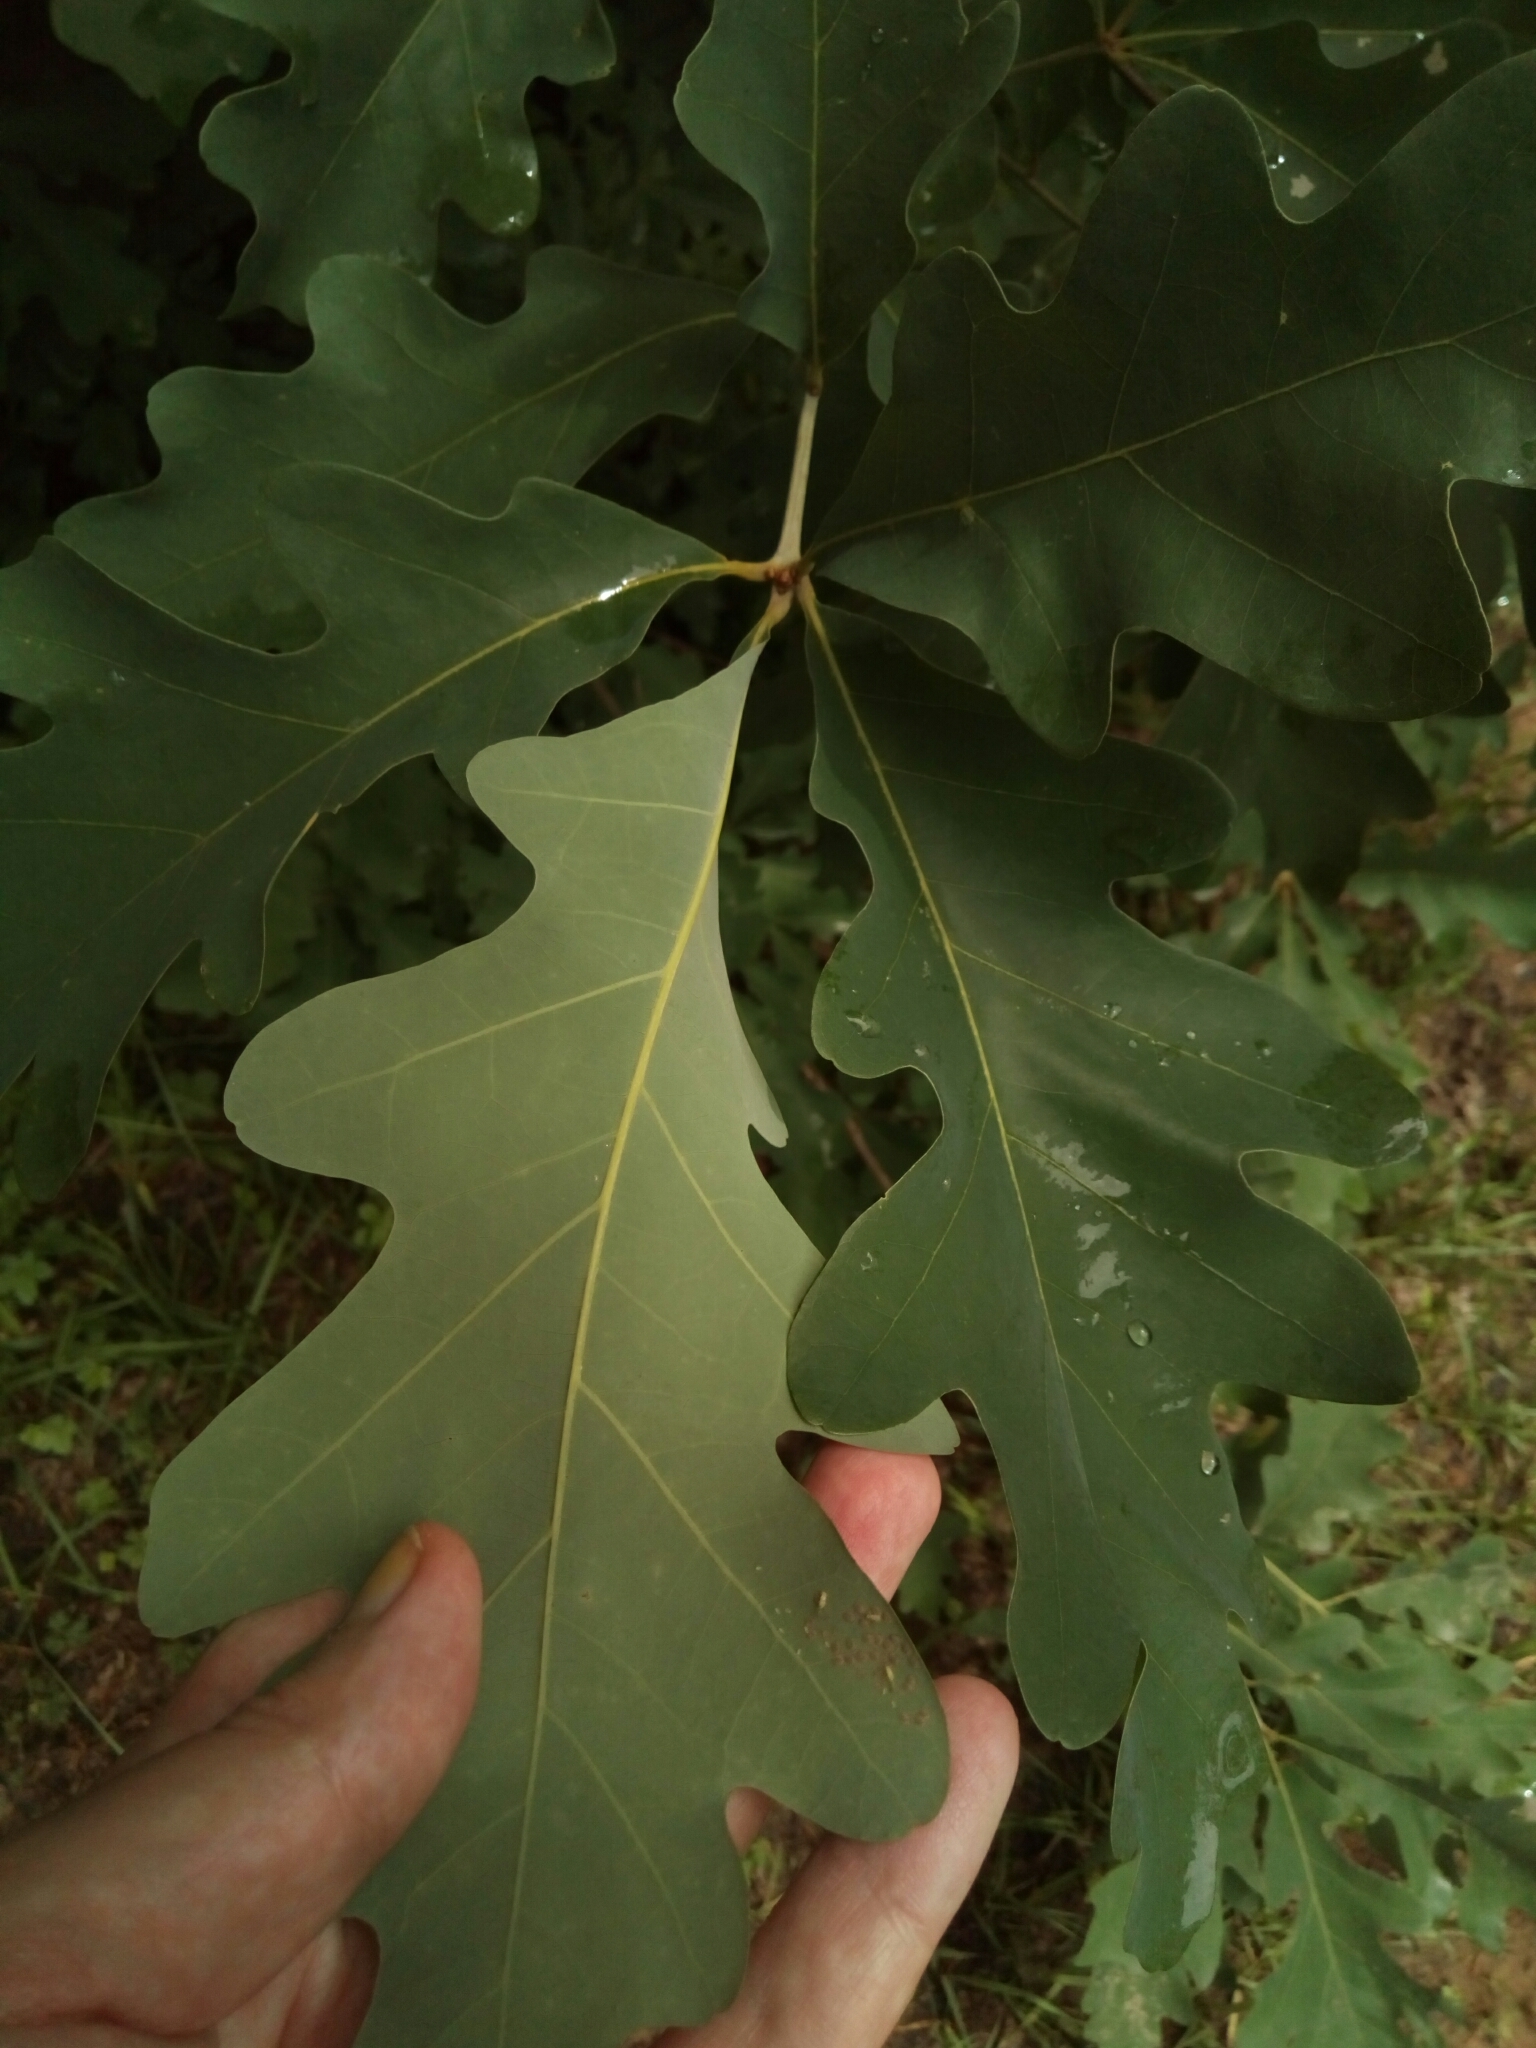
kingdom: Plantae
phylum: Tracheophyta
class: Magnoliopsida
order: Fagales
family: Fagaceae
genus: Quercus
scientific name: Quercus alba
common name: White oak
